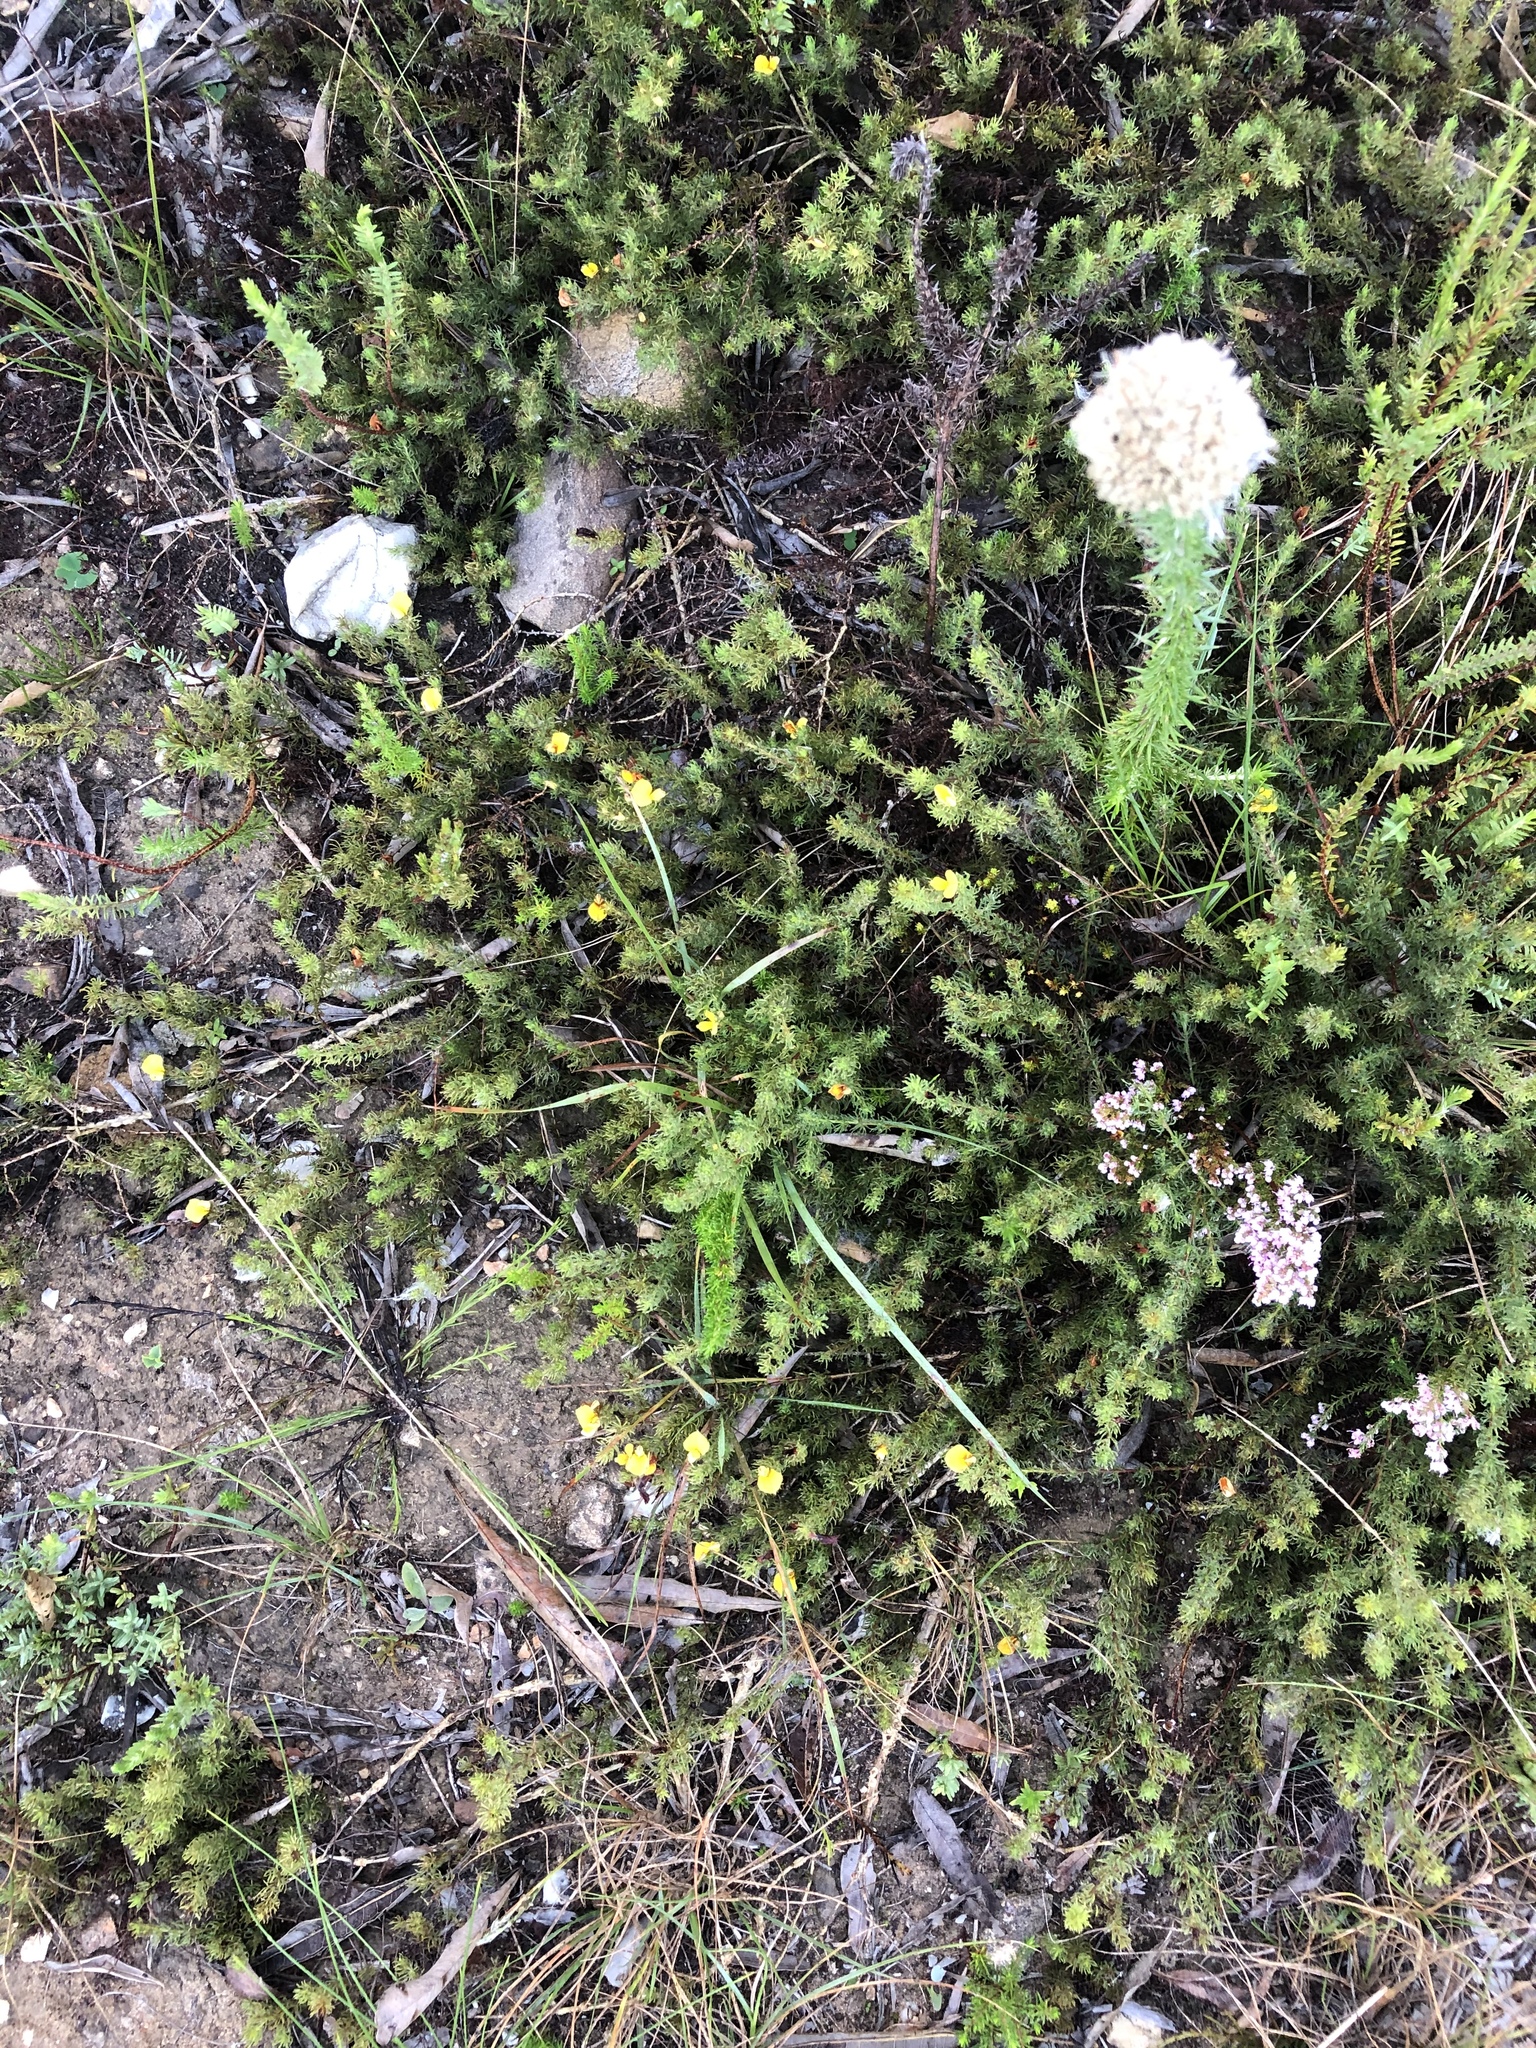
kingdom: Plantae
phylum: Tracheophyta
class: Magnoliopsida
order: Fabales
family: Fabaceae
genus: Aspalathus
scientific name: Aspalathus ciliaris
